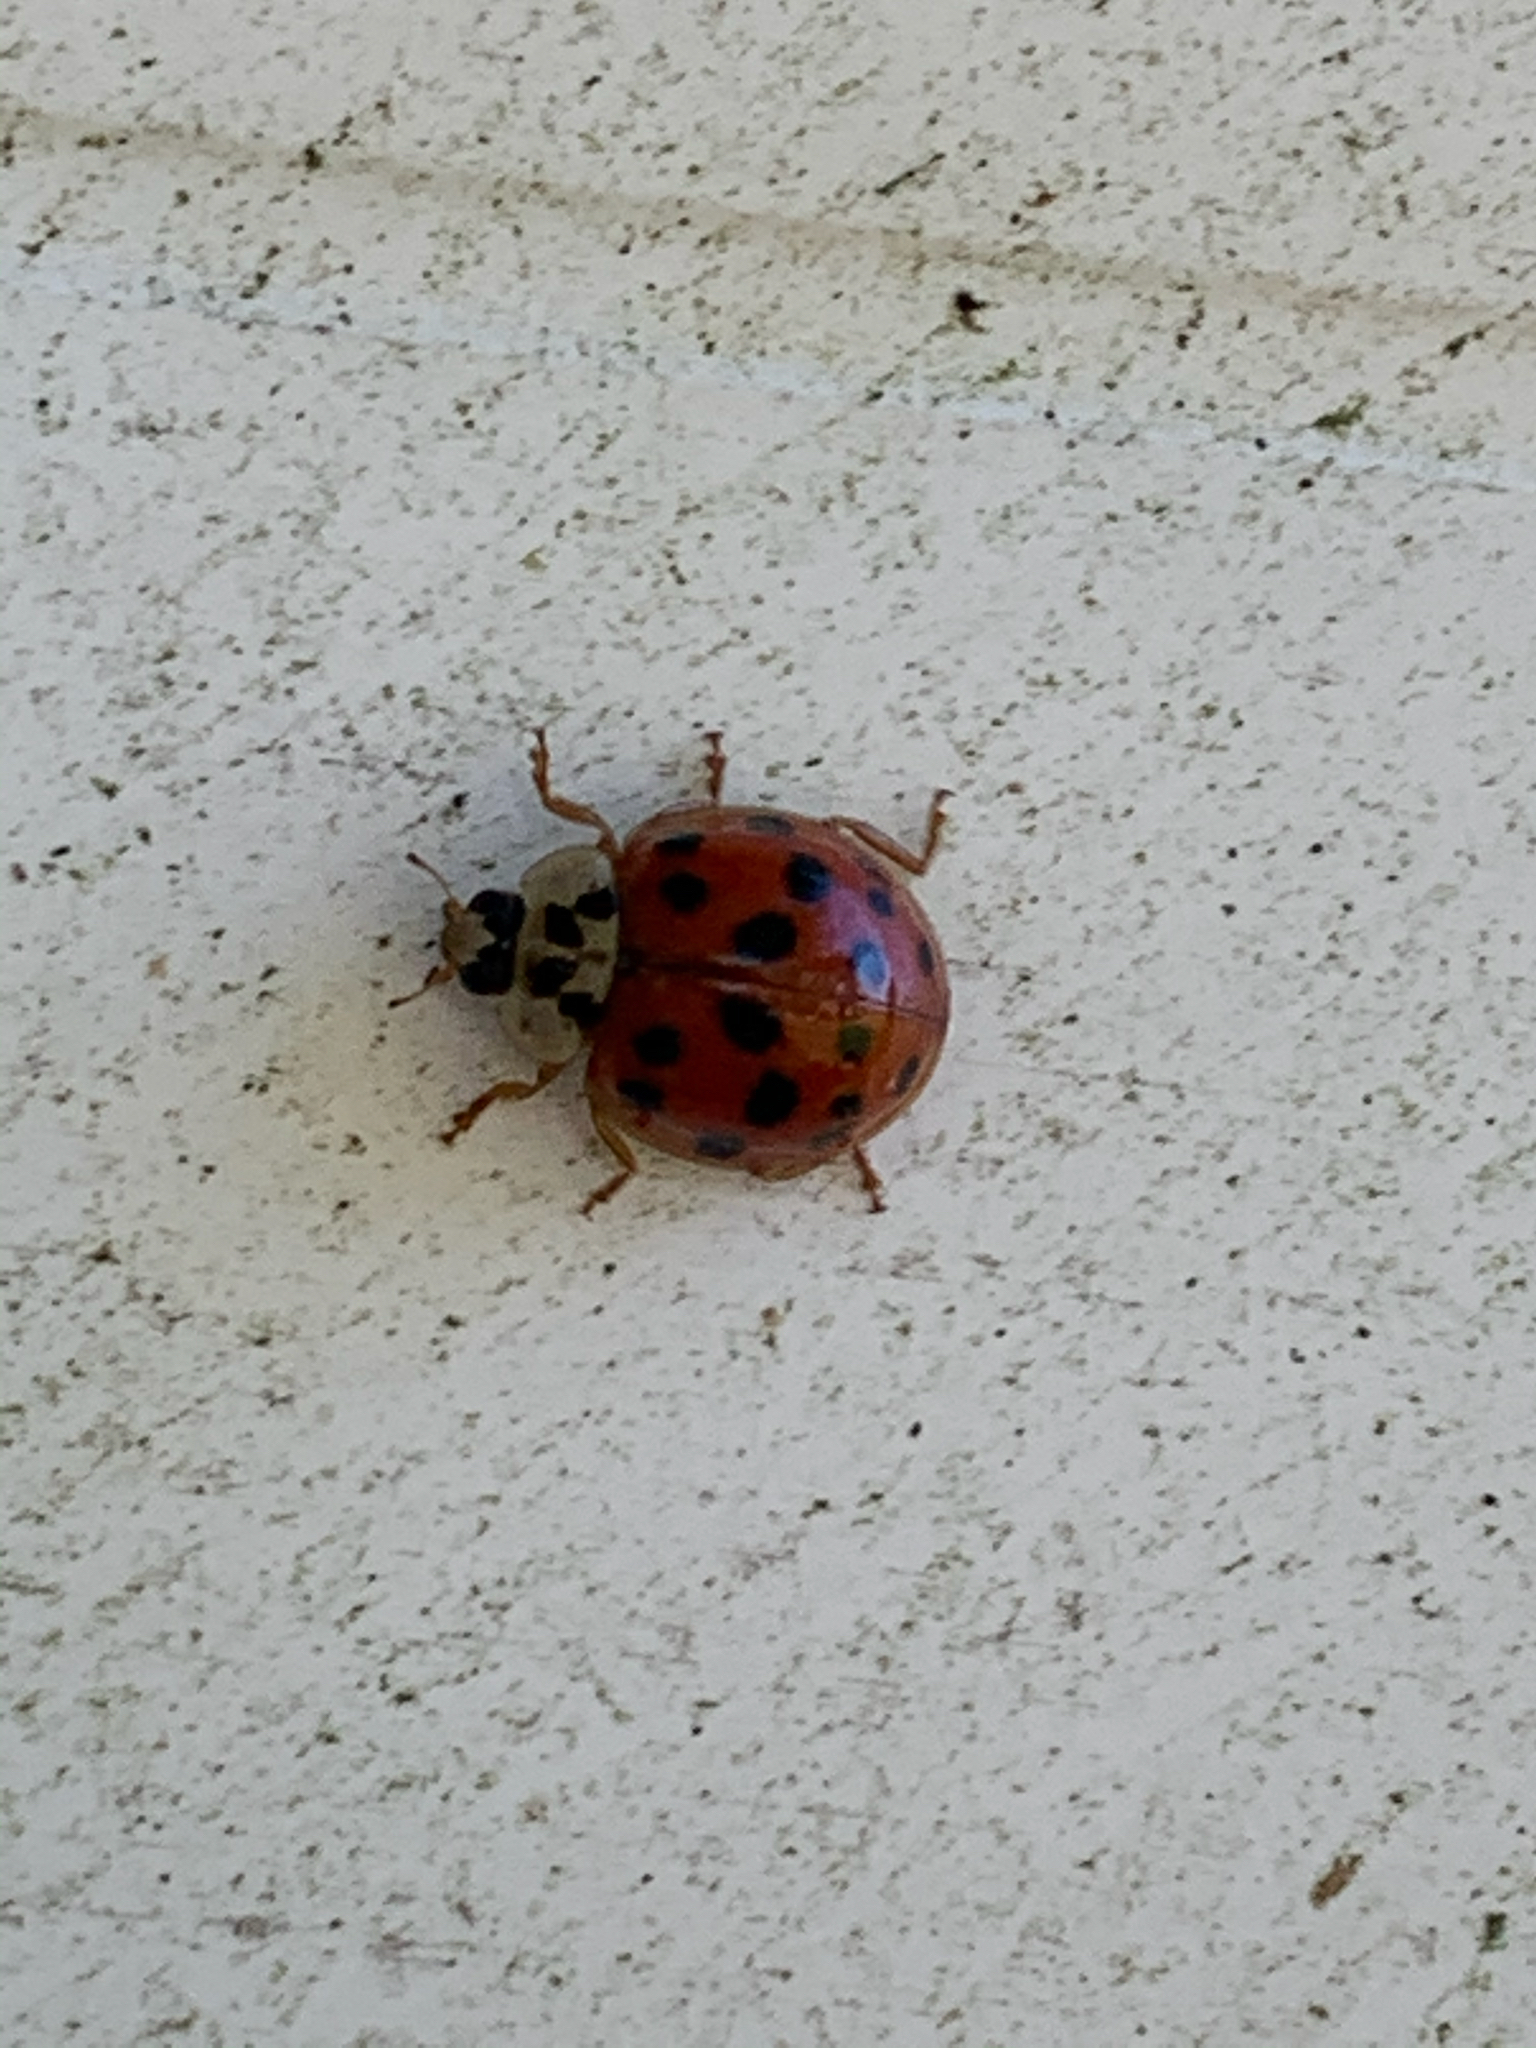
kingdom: Animalia
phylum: Arthropoda
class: Insecta
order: Coleoptera
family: Coccinellidae
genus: Harmonia
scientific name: Harmonia axyridis
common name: Harlequin ladybird
